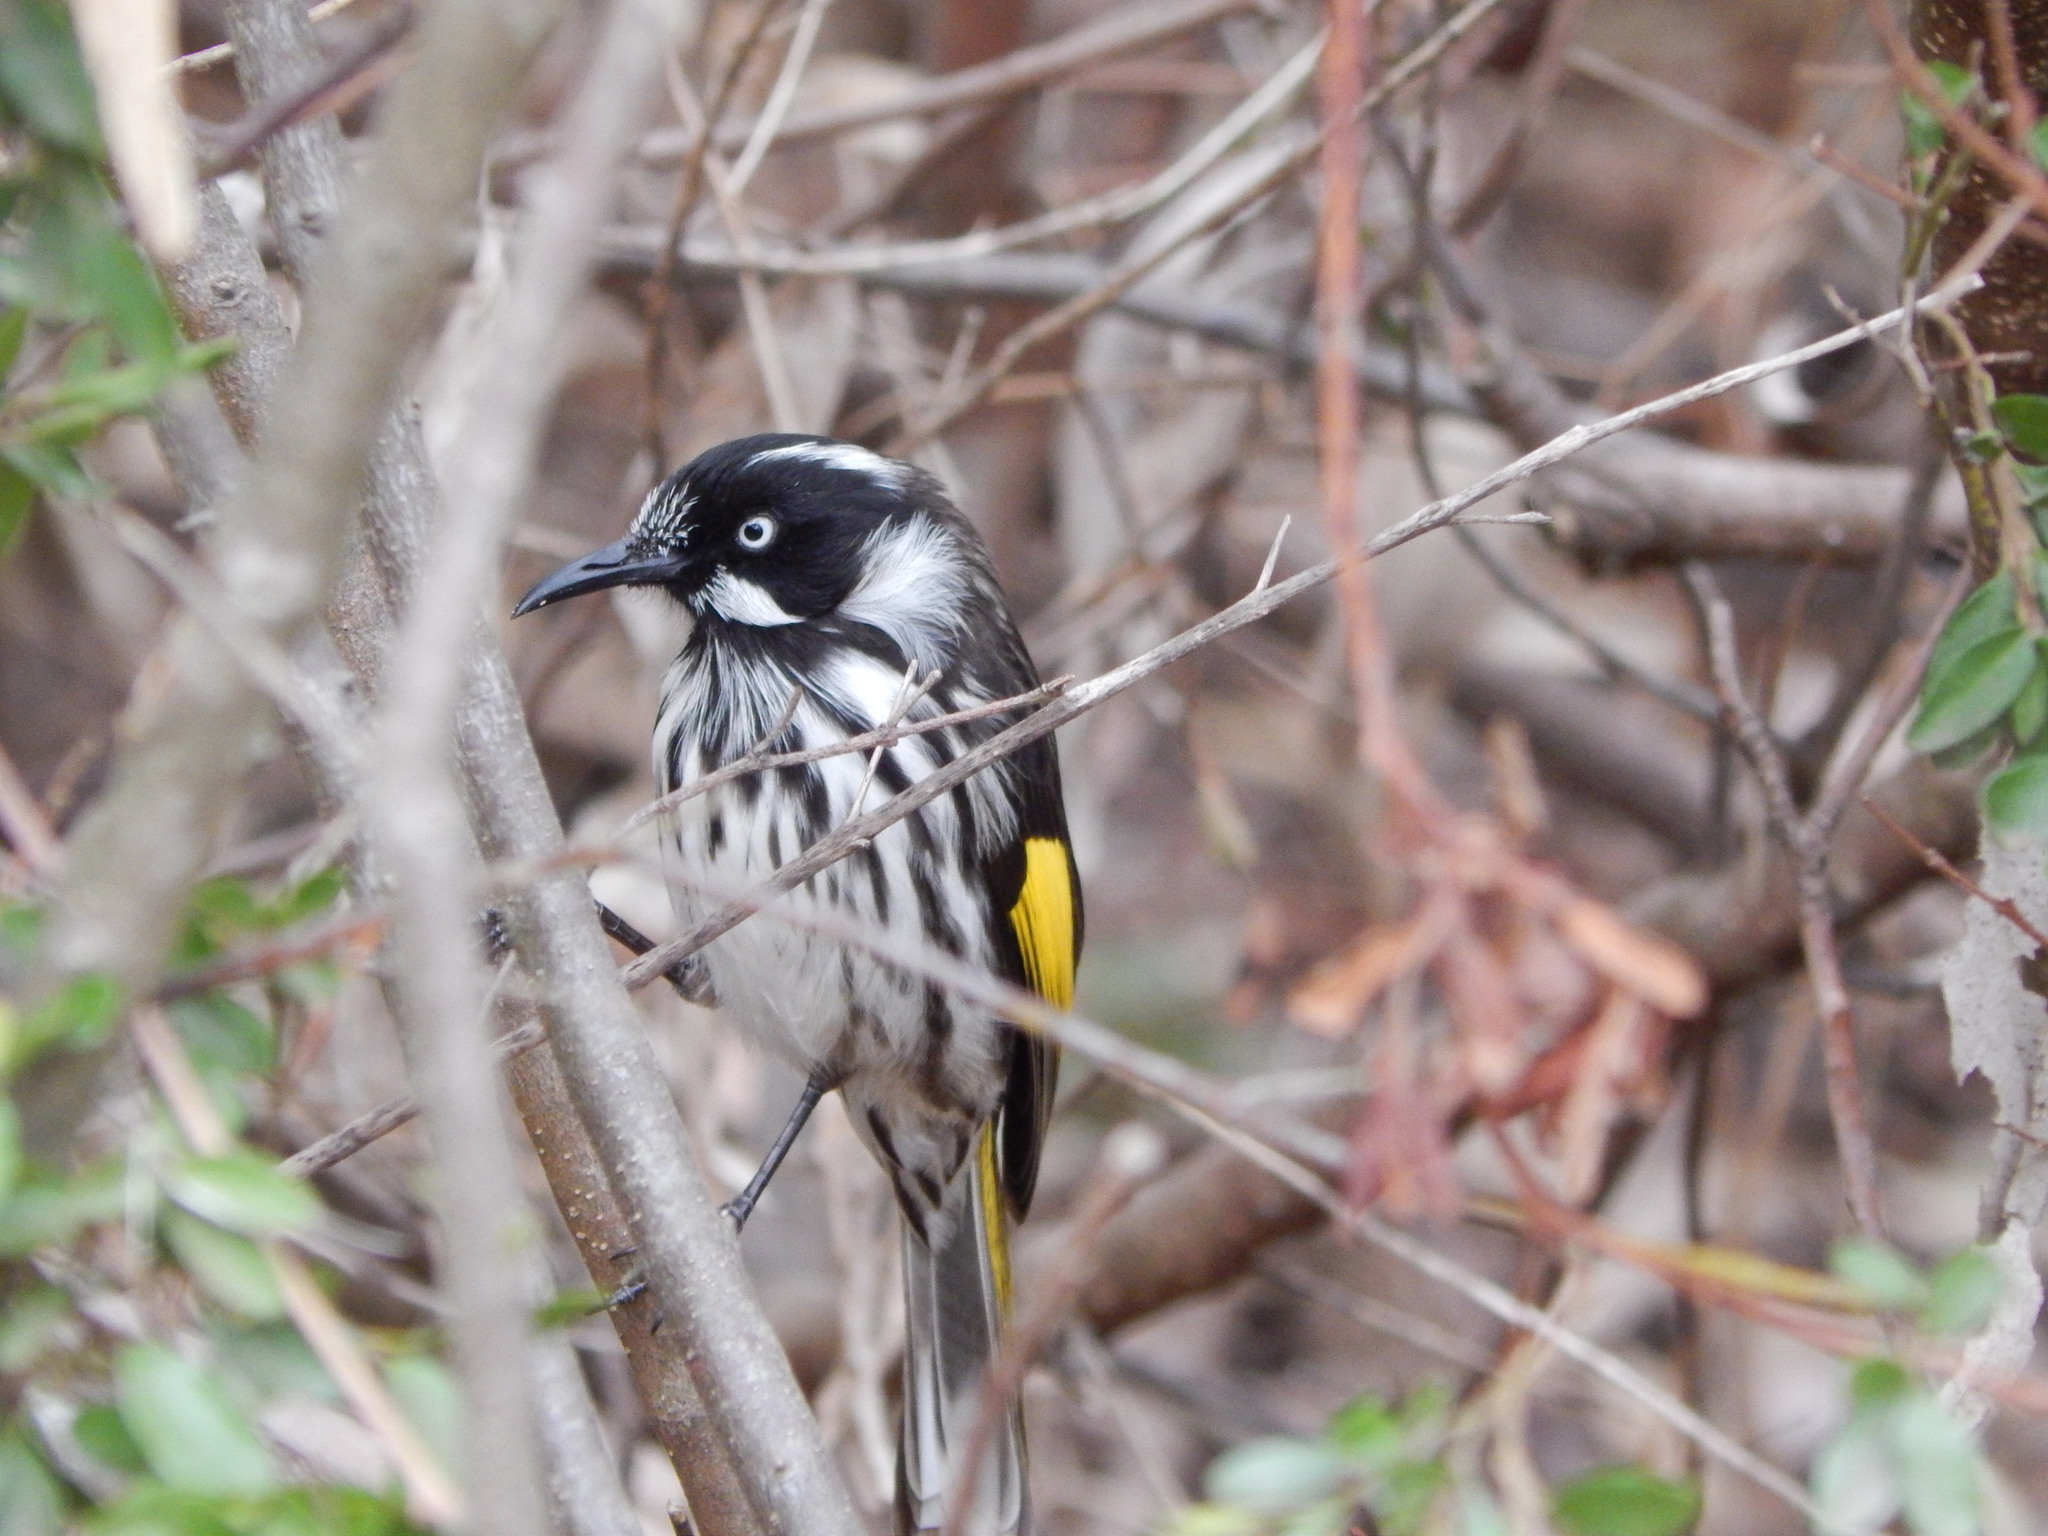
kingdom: Animalia
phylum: Chordata
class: Aves
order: Passeriformes
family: Meliphagidae
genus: Phylidonyris
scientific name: Phylidonyris novaehollandiae
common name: New holland honeyeater
